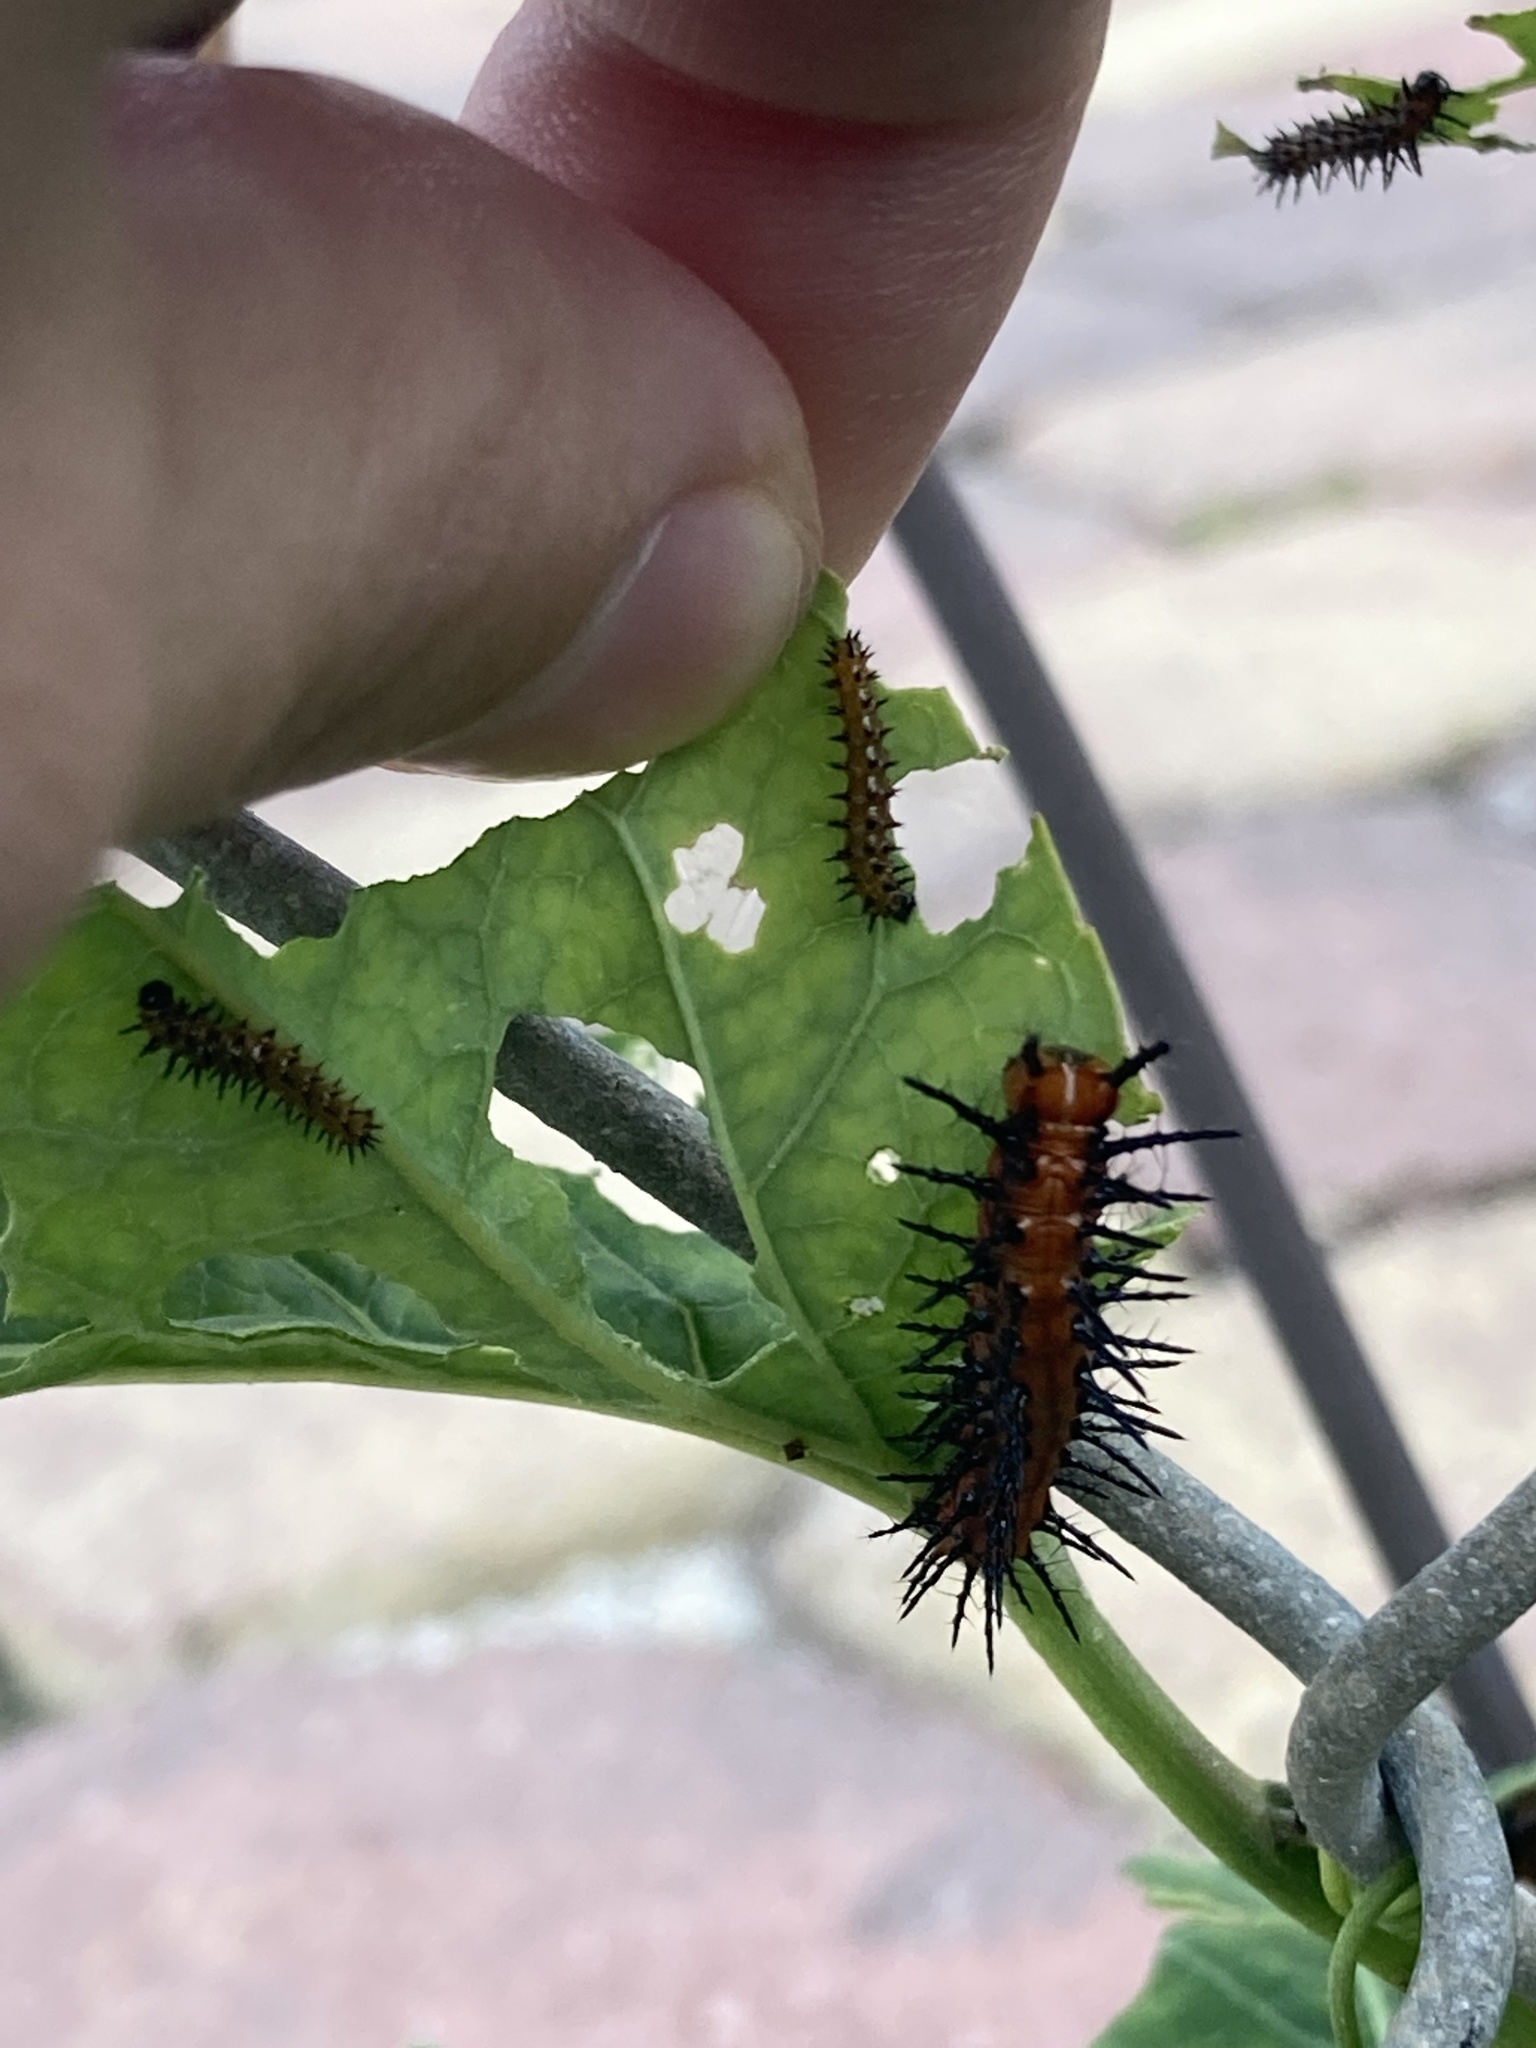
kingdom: Animalia
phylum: Arthropoda
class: Insecta
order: Lepidoptera
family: Nymphalidae
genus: Dione
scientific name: Dione vanillae
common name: Gulf fritillary
